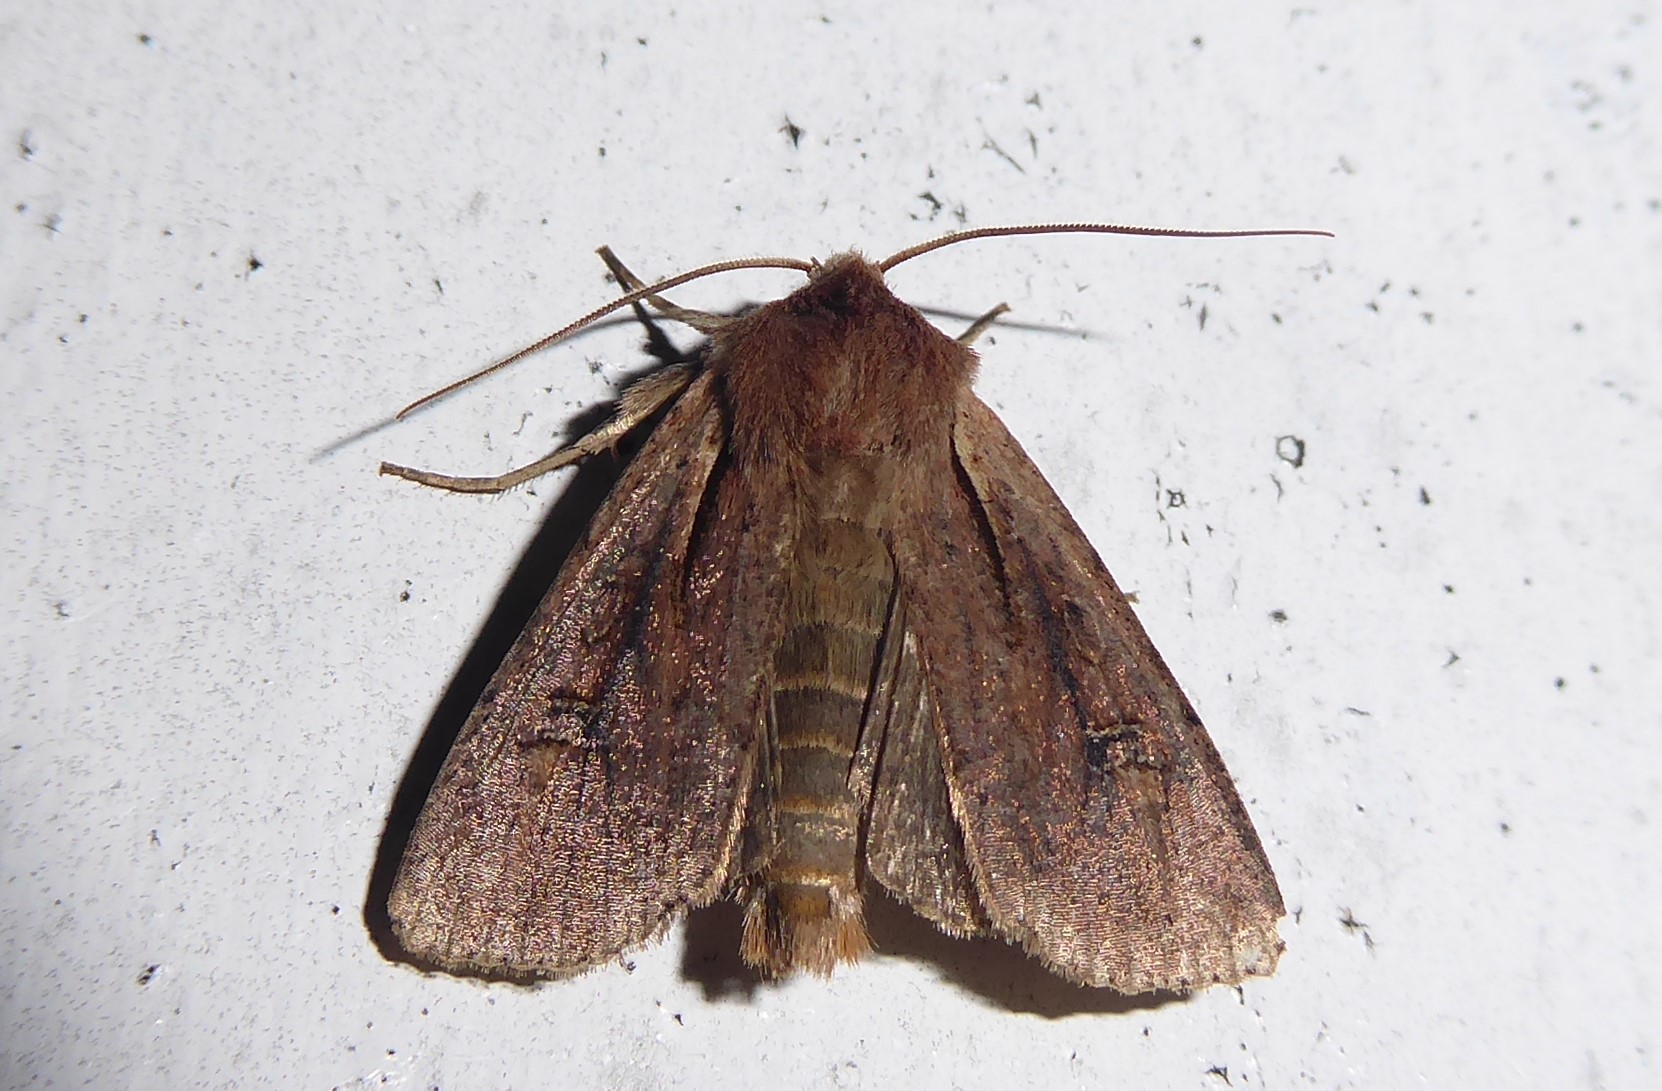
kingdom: Animalia
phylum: Arthropoda
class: Insecta
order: Lepidoptera
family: Noctuidae
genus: Ichneutica
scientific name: Ichneutica atristriga
